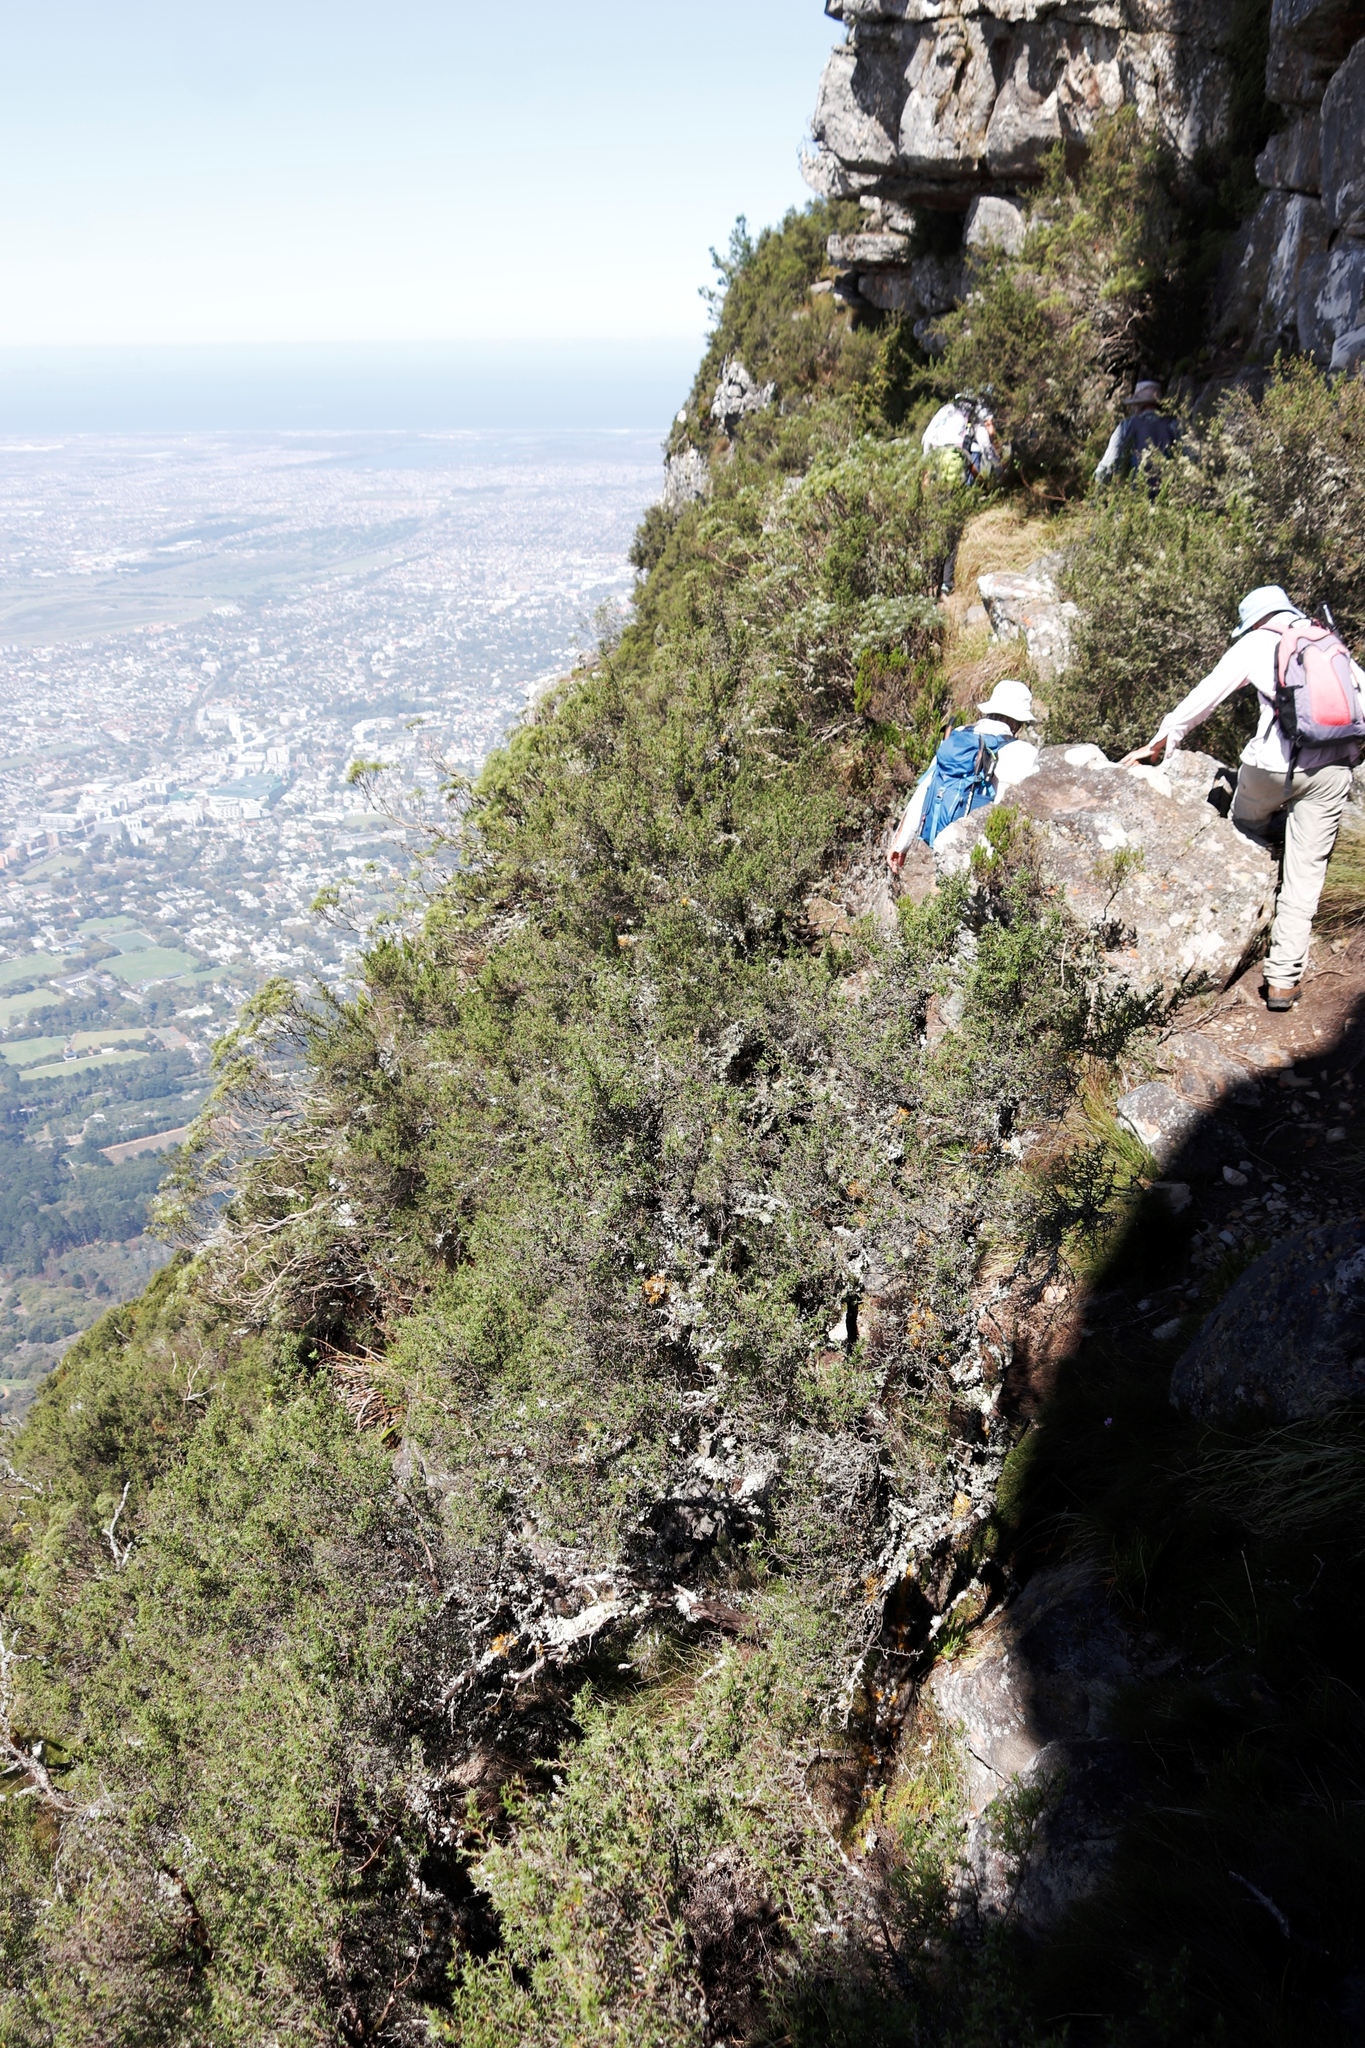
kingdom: Plantae
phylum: Tracheophyta
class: Magnoliopsida
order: Rosales
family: Rosaceae
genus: Cliffortia
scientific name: Cliffortia ruscifolia
